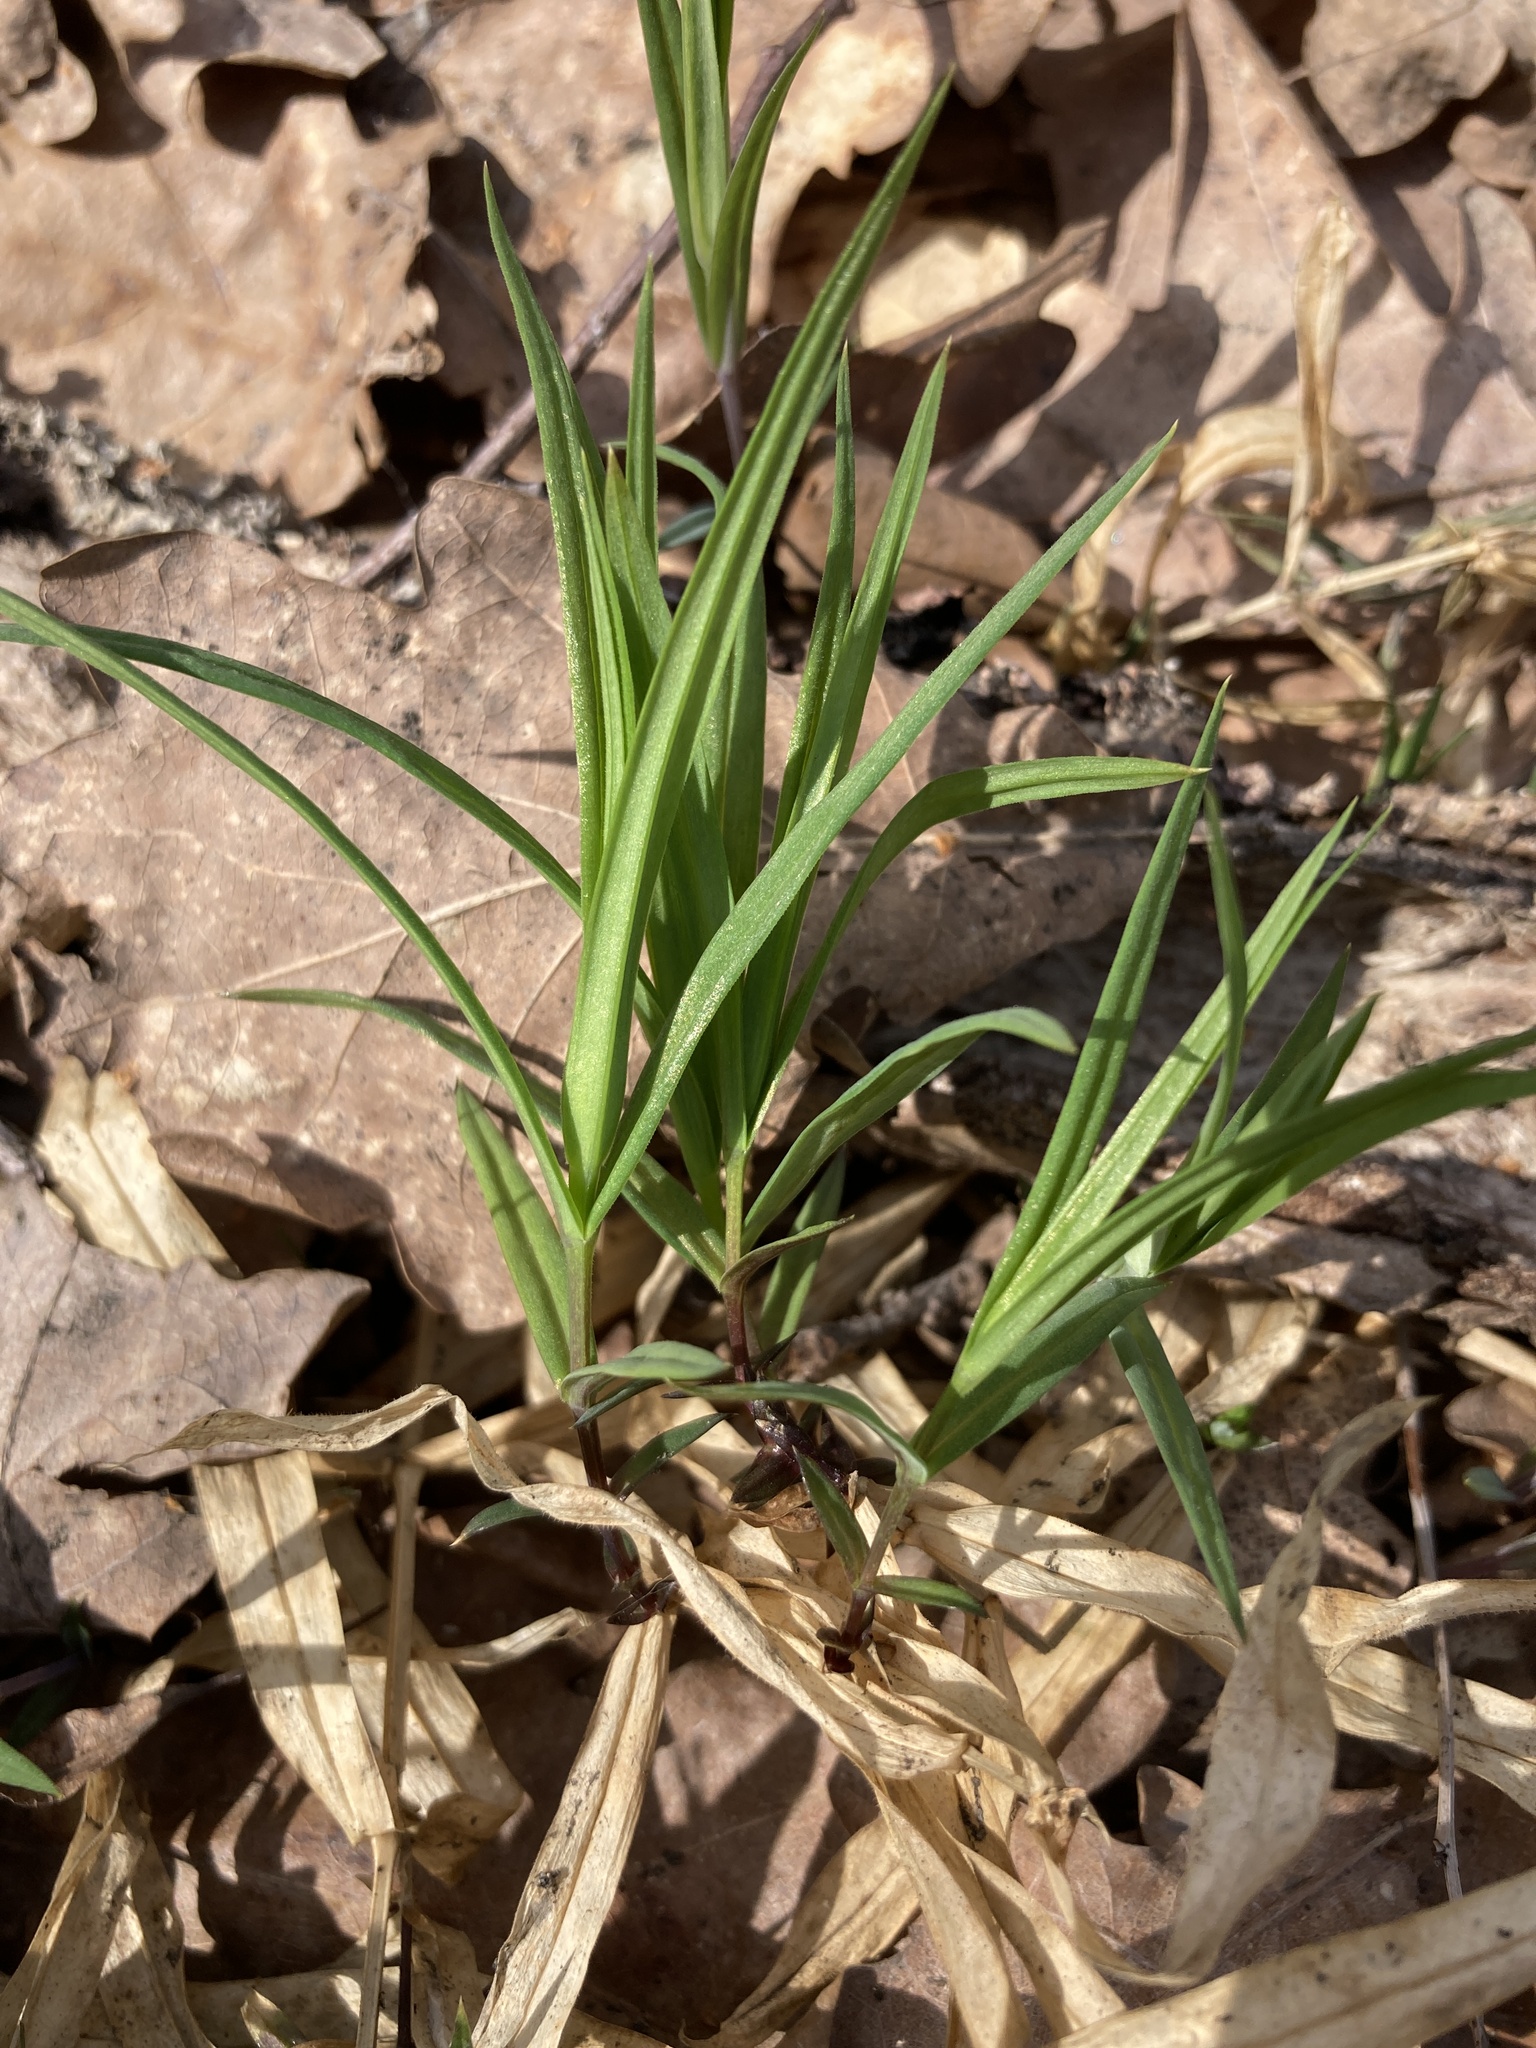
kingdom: Plantae
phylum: Tracheophyta
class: Magnoliopsida
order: Caryophyllales
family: Caryophyllaceae
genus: Rabelera
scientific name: Rabelera holostea
